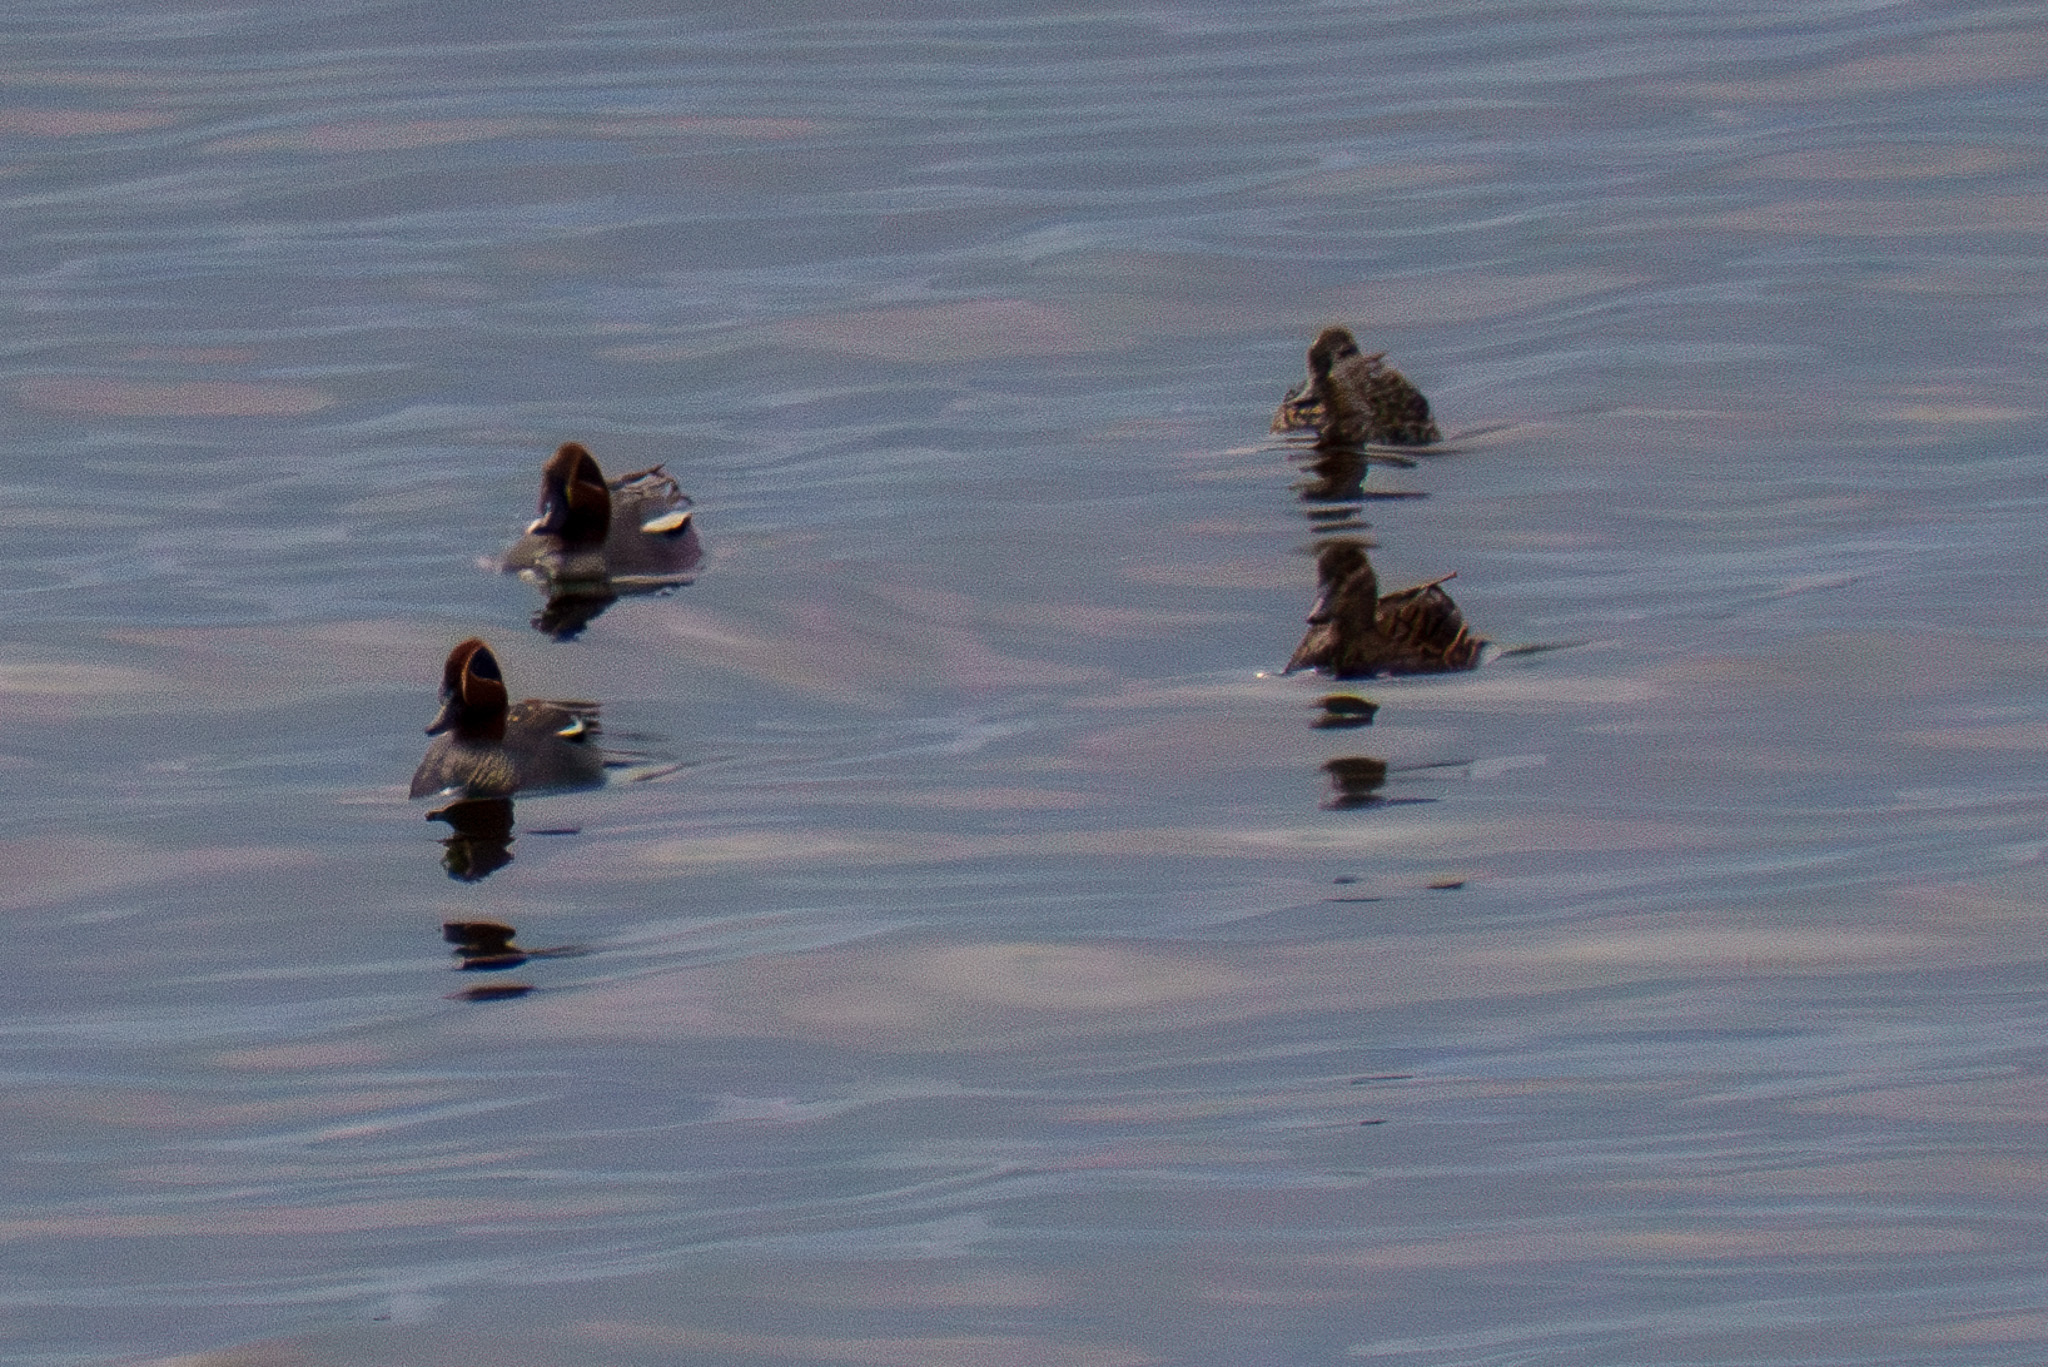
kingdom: Animalia
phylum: Chordata
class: Aves
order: Anseriformes
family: Anatidae
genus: Anas
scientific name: Anas crecca
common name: Eurasian teal
